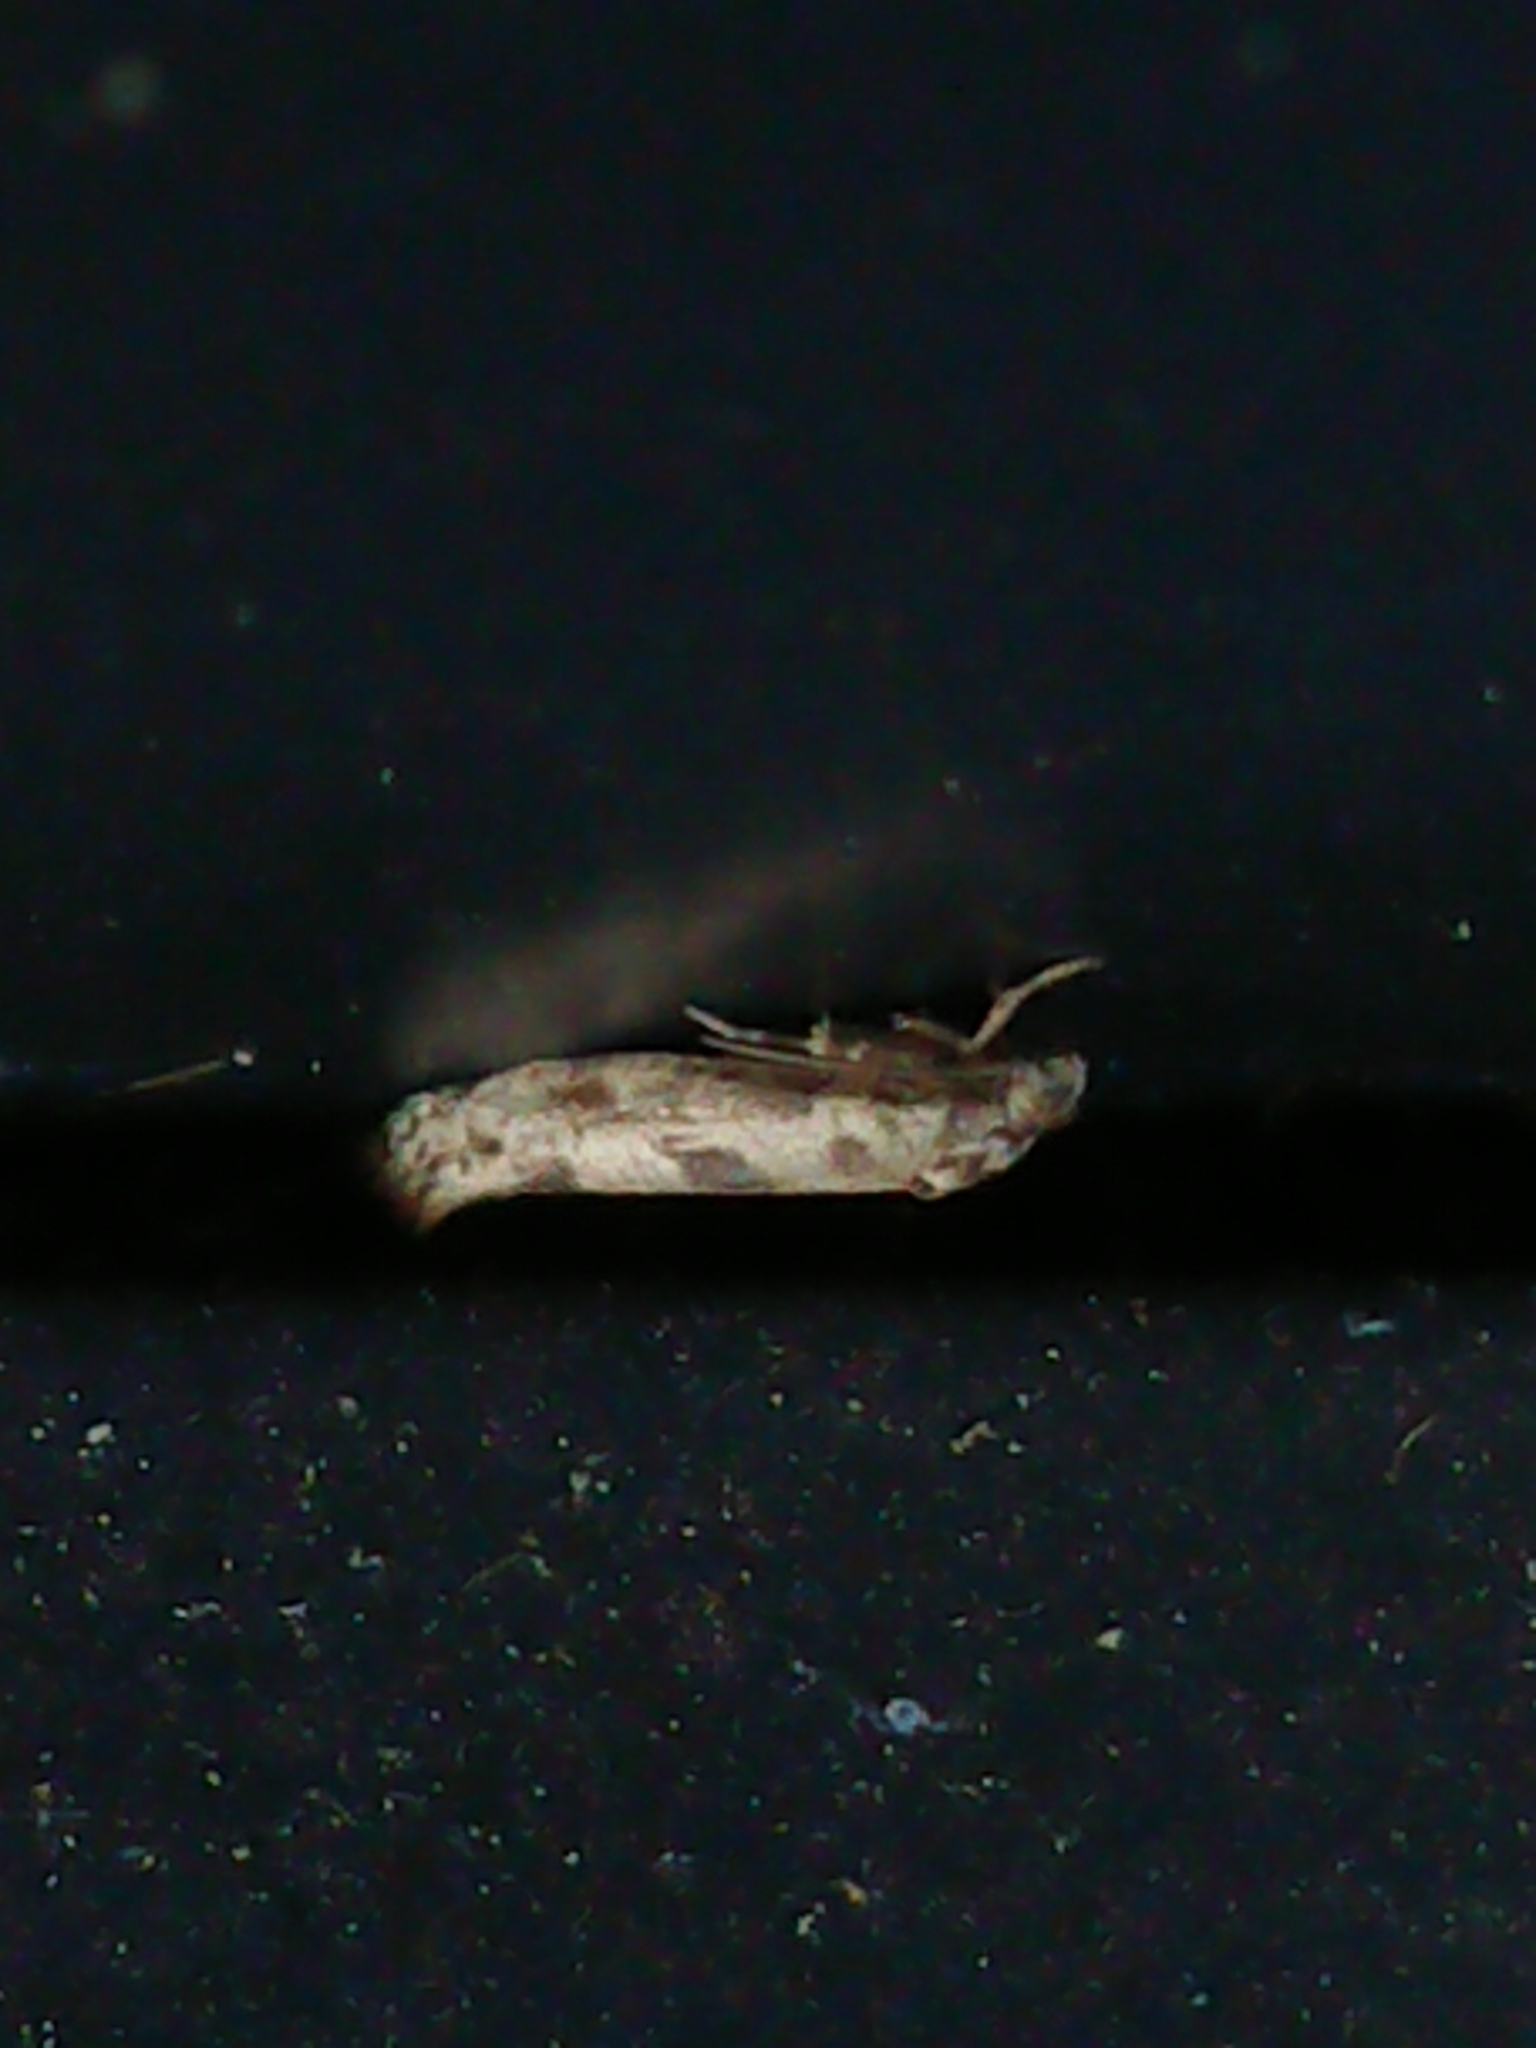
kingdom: Animalia
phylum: Arthropoda
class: Insecta
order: Lepidoptera
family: Praydidae
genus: Prays
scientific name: Prays nephelomima
